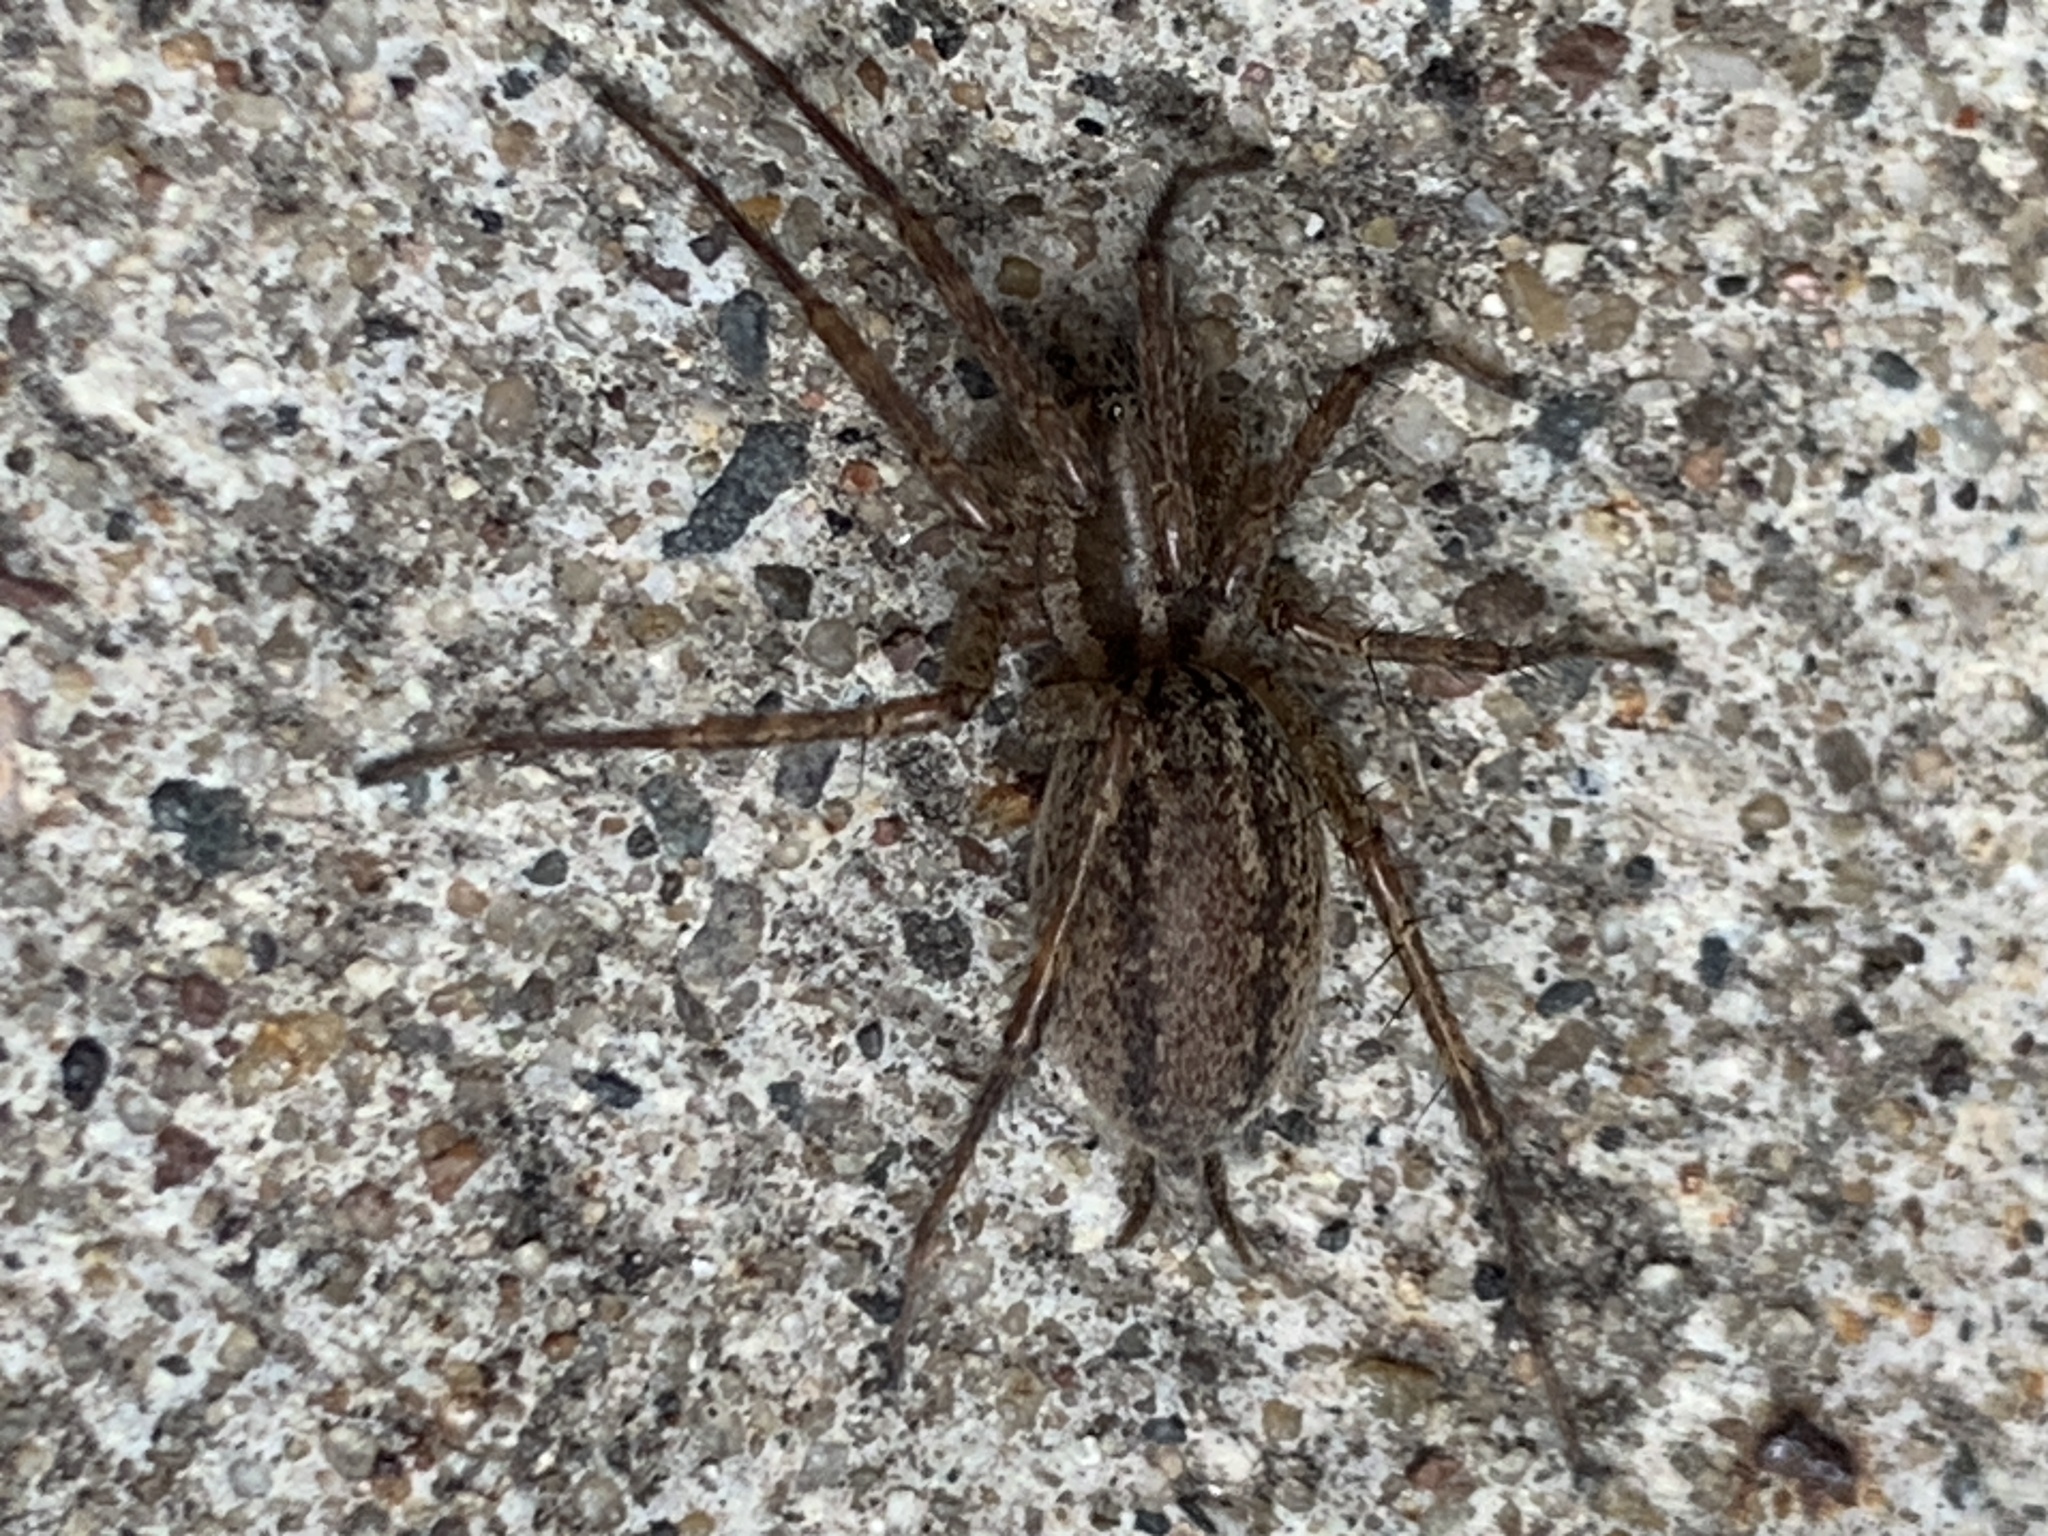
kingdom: Animalia
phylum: Arthropoda
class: Arachnida
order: Araneae
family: Agelenidae
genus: Agelenopsis
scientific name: Agelenopsis
